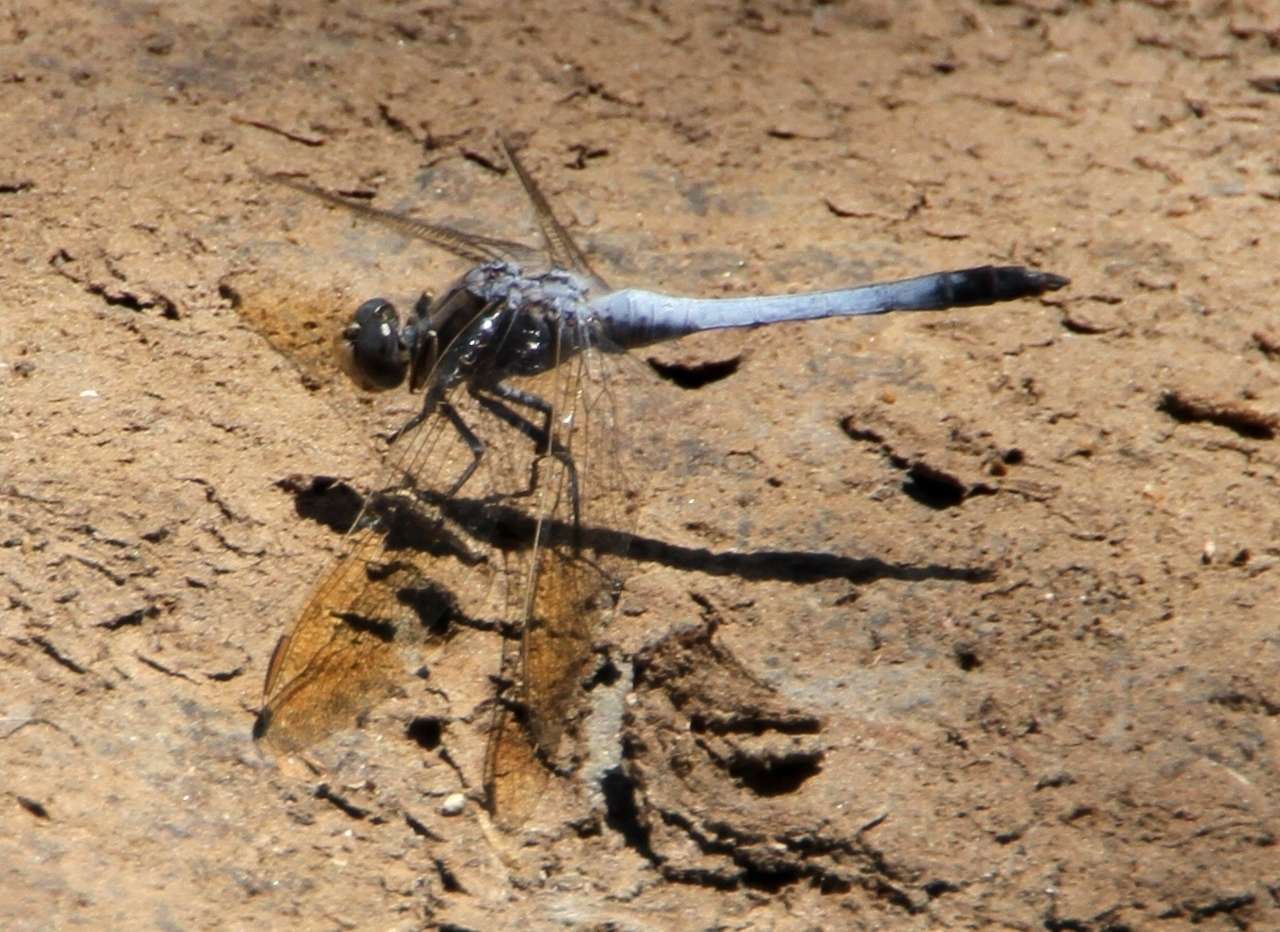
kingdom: Animalia
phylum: Arthropoda
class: Insecta
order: Odonata
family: Libellulidae
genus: Orthetrum
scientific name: Orthetrum caledonicum
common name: Blue skimmer
